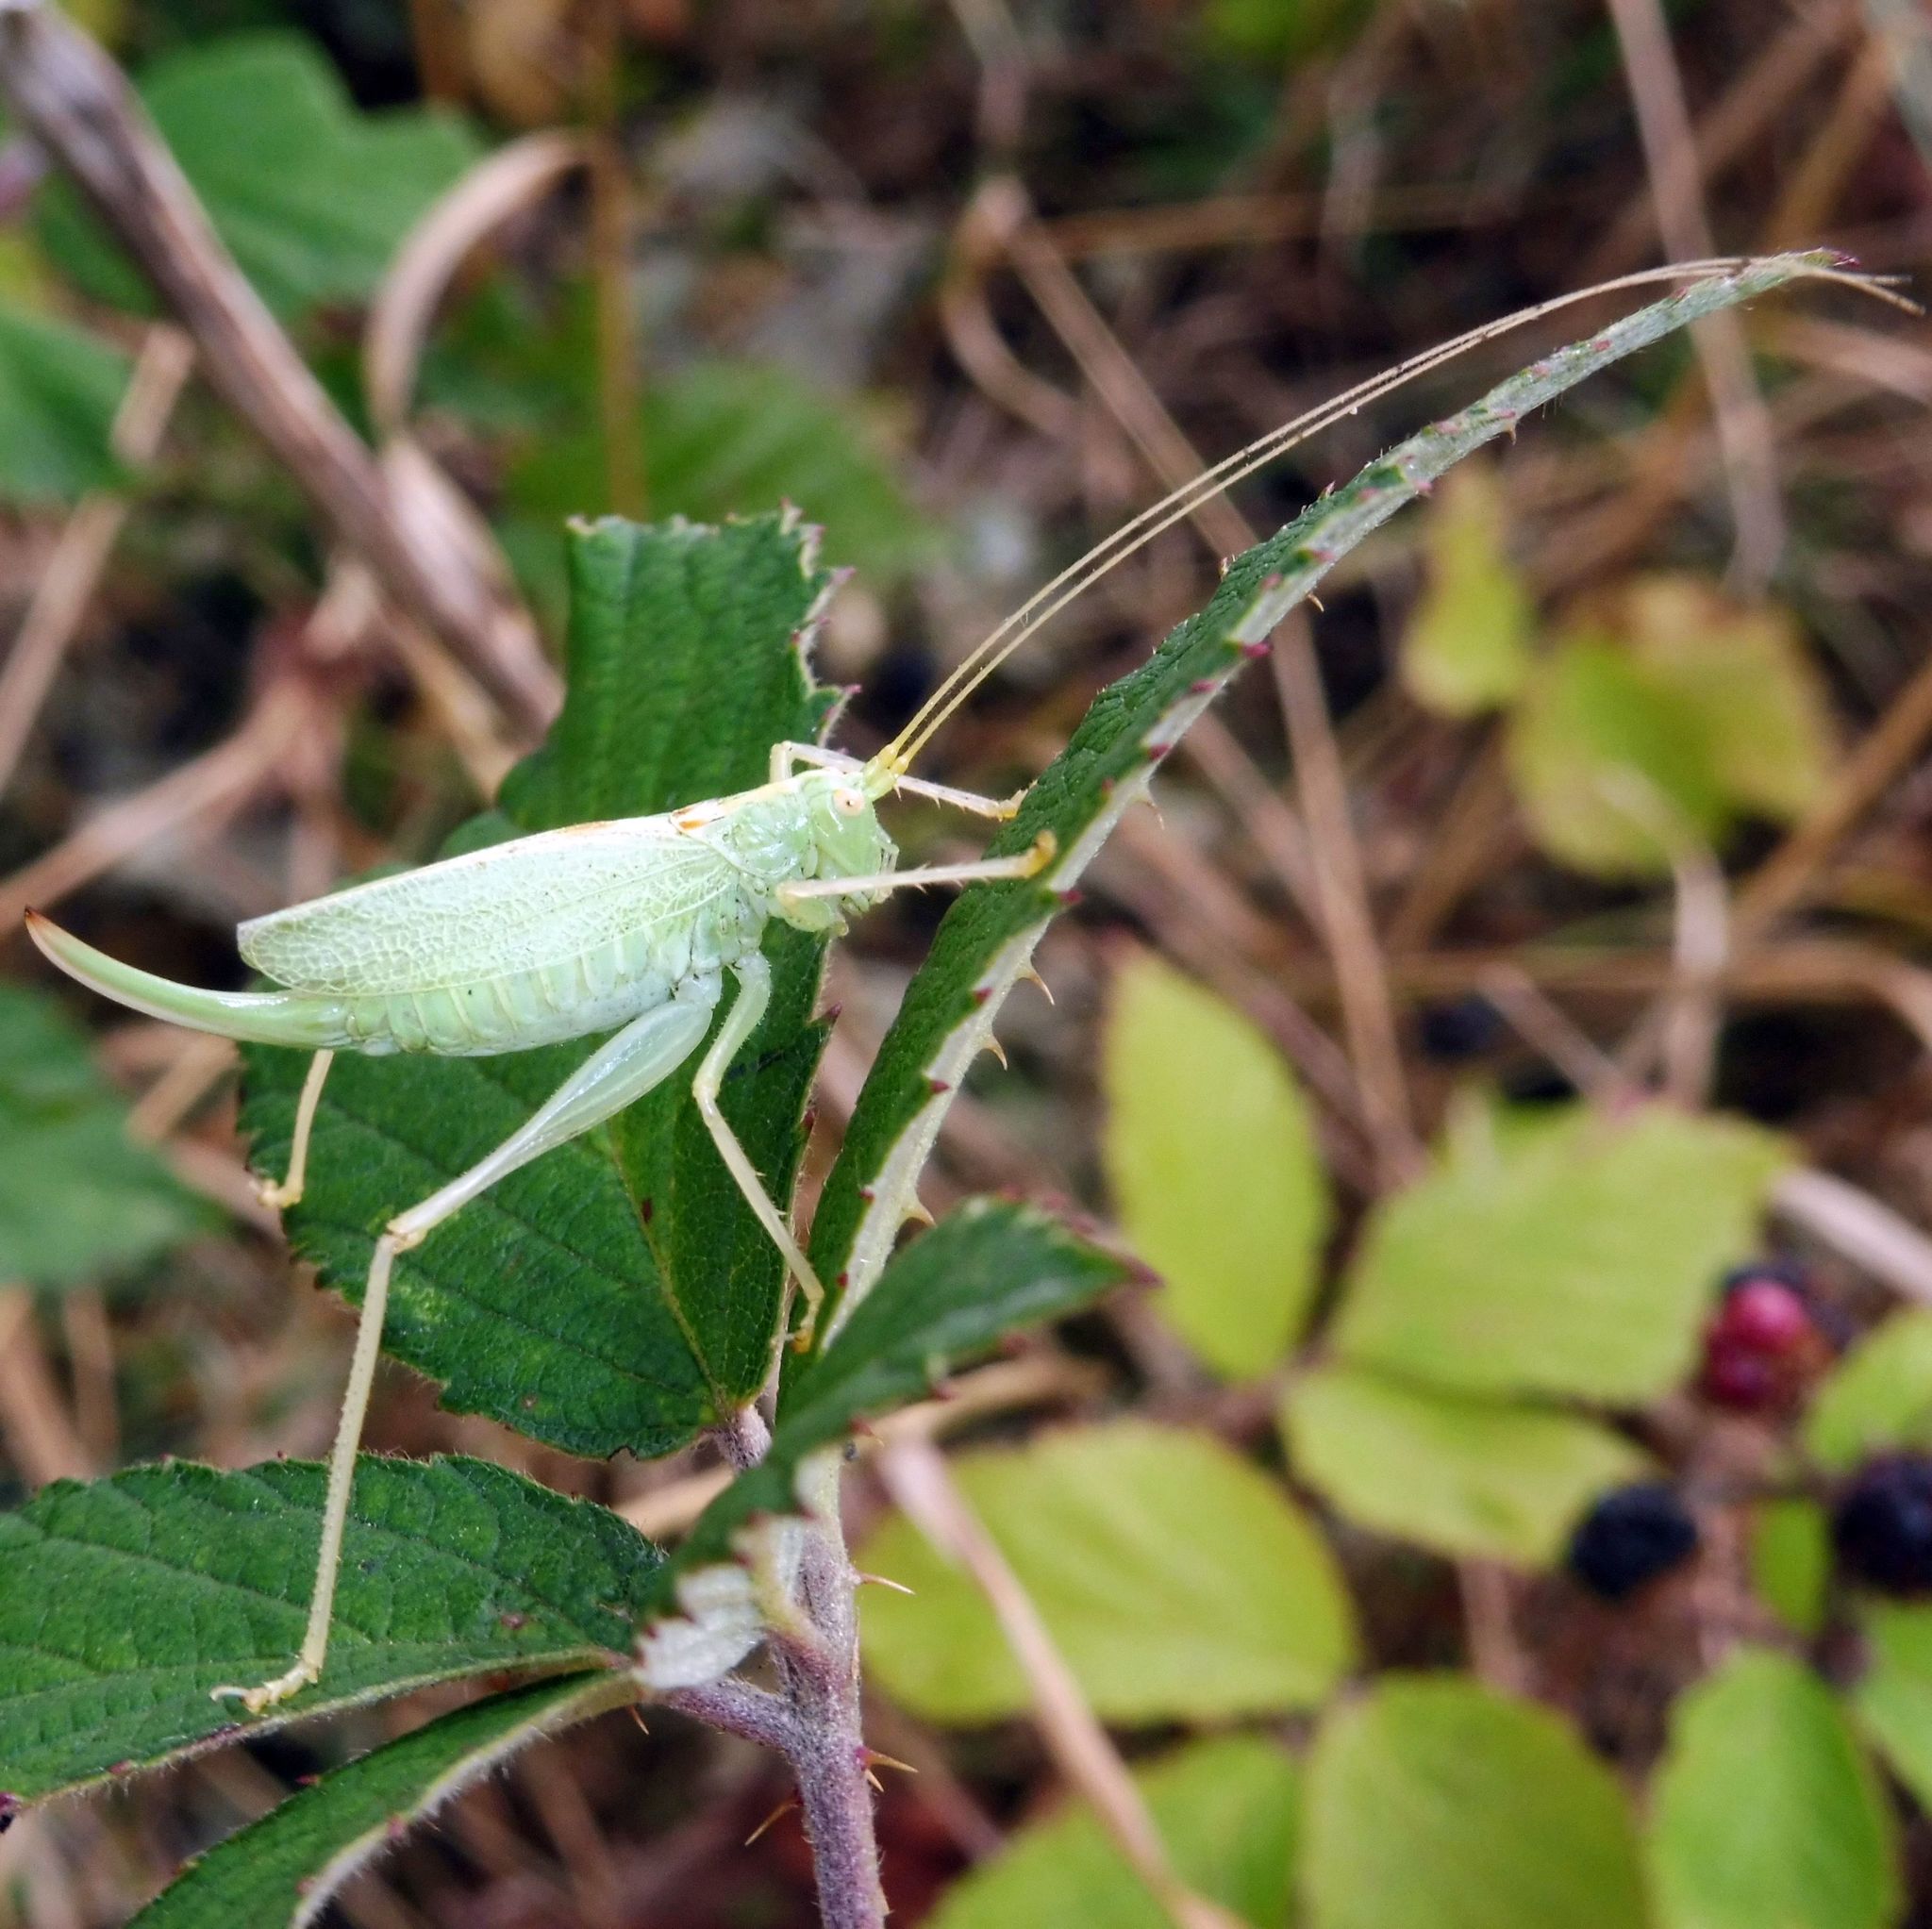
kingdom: Animalia
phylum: Arthropoda
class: Insecta
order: Orthoptera
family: Tettigoniidae
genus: Meconema
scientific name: Meconema thalassinum
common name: Oak bush-cricket
